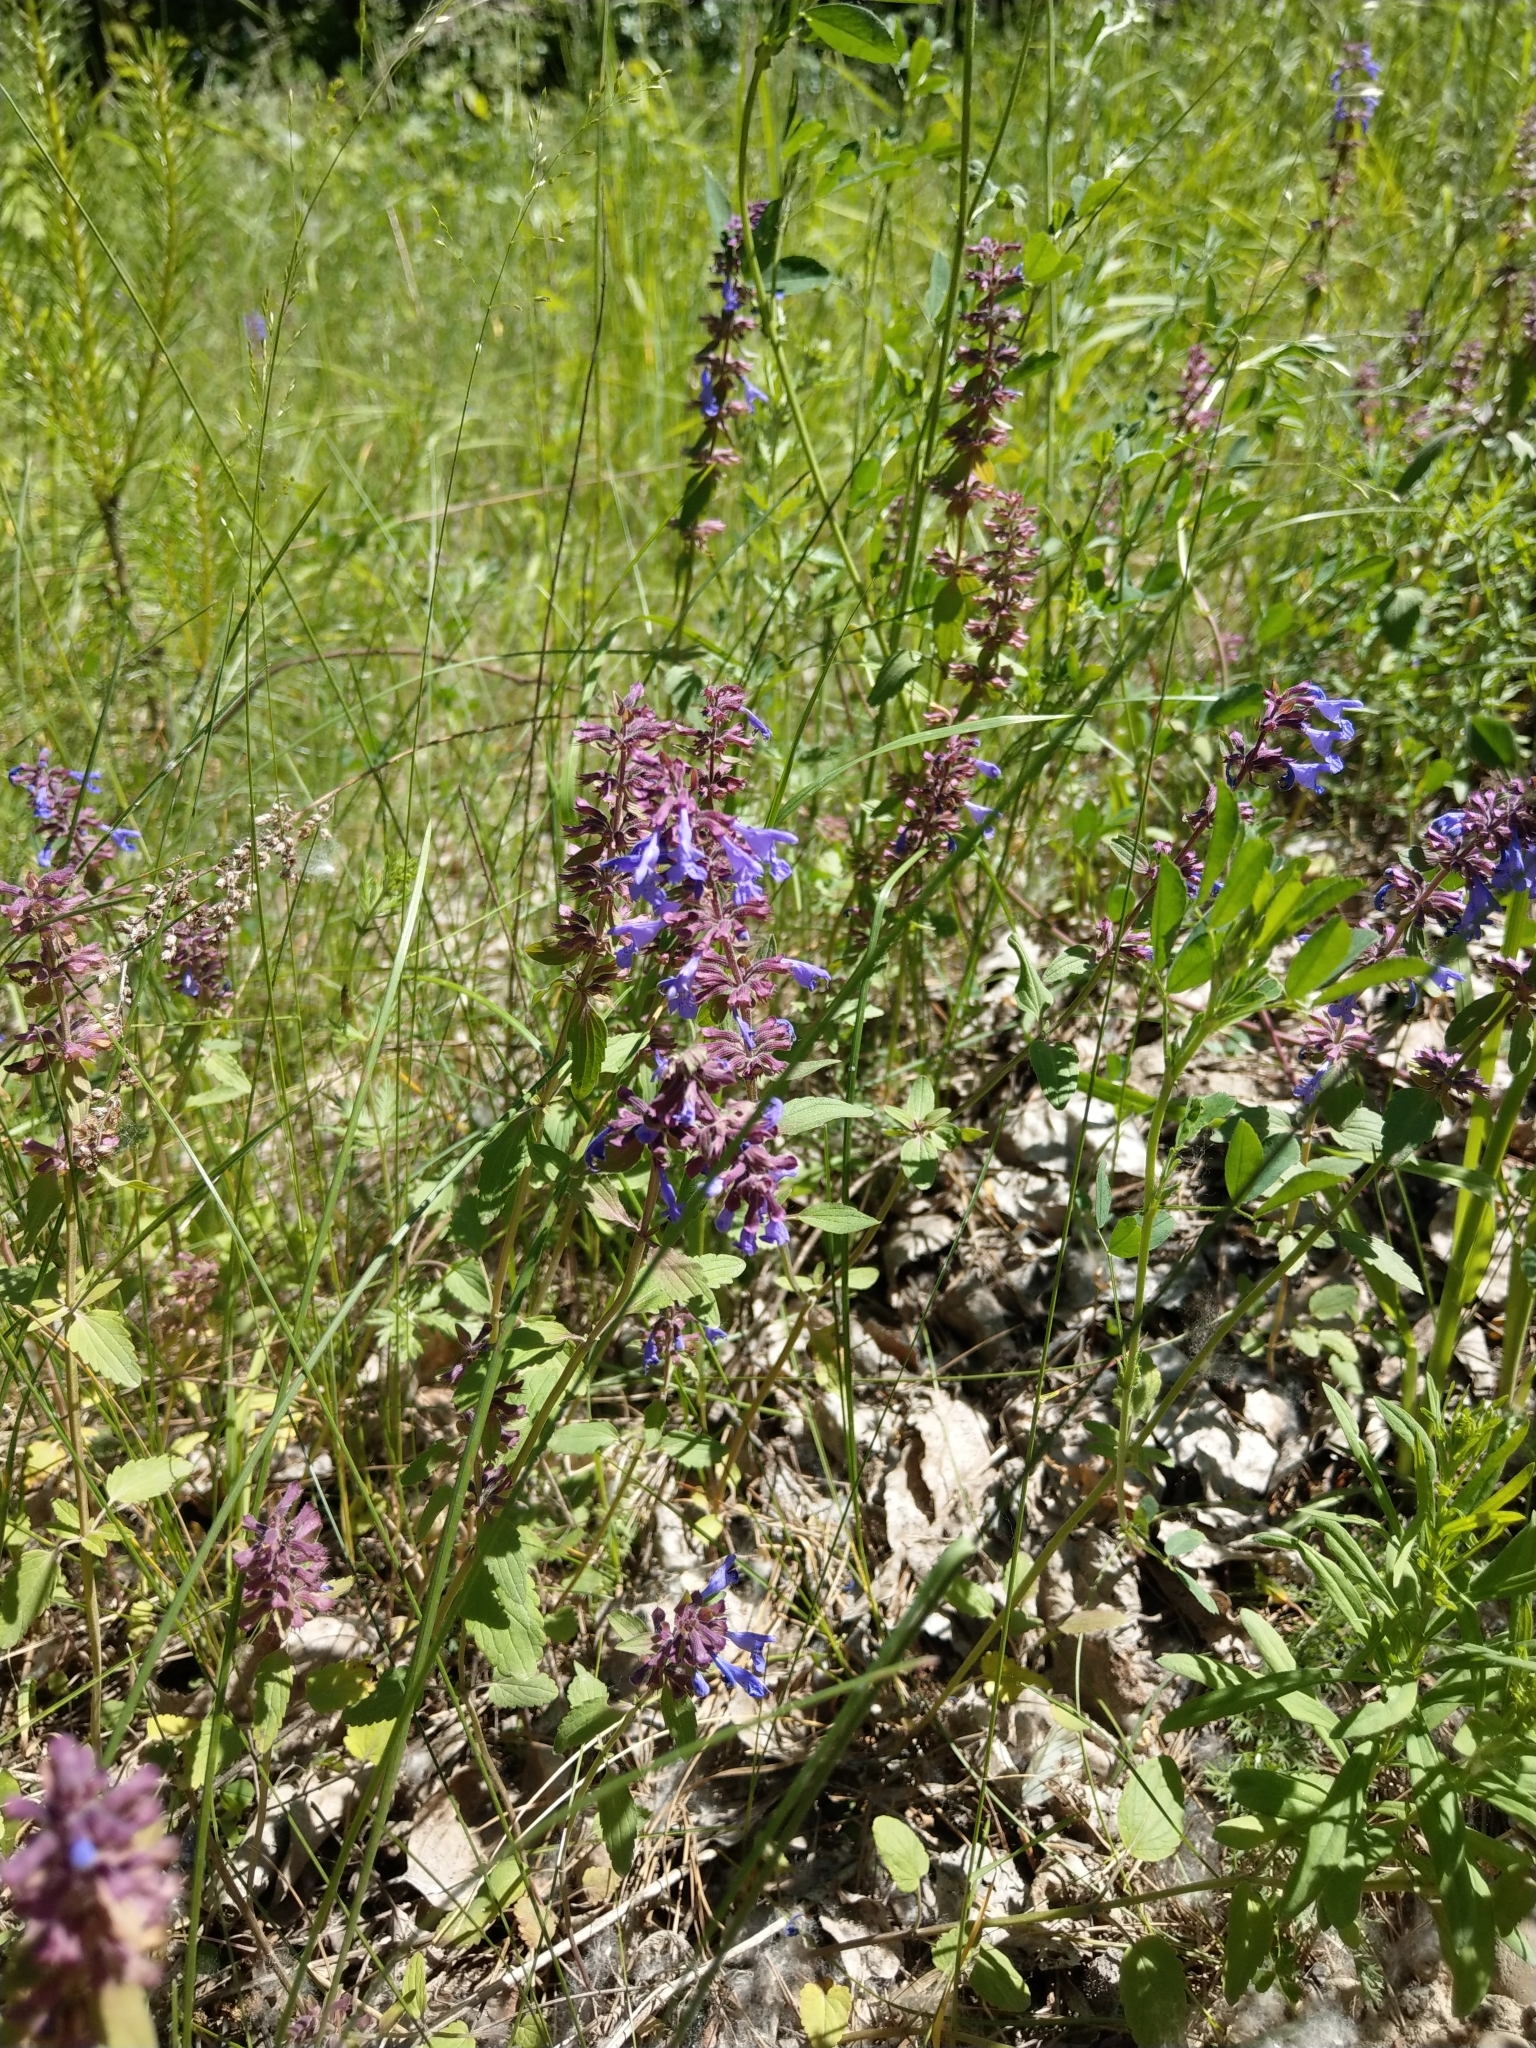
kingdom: Plantae
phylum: Tracheophyta
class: Magnoliopsida
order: Lamiales
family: Lamiaceae
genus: Dracocephalum
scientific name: Dracocephalum nutans
